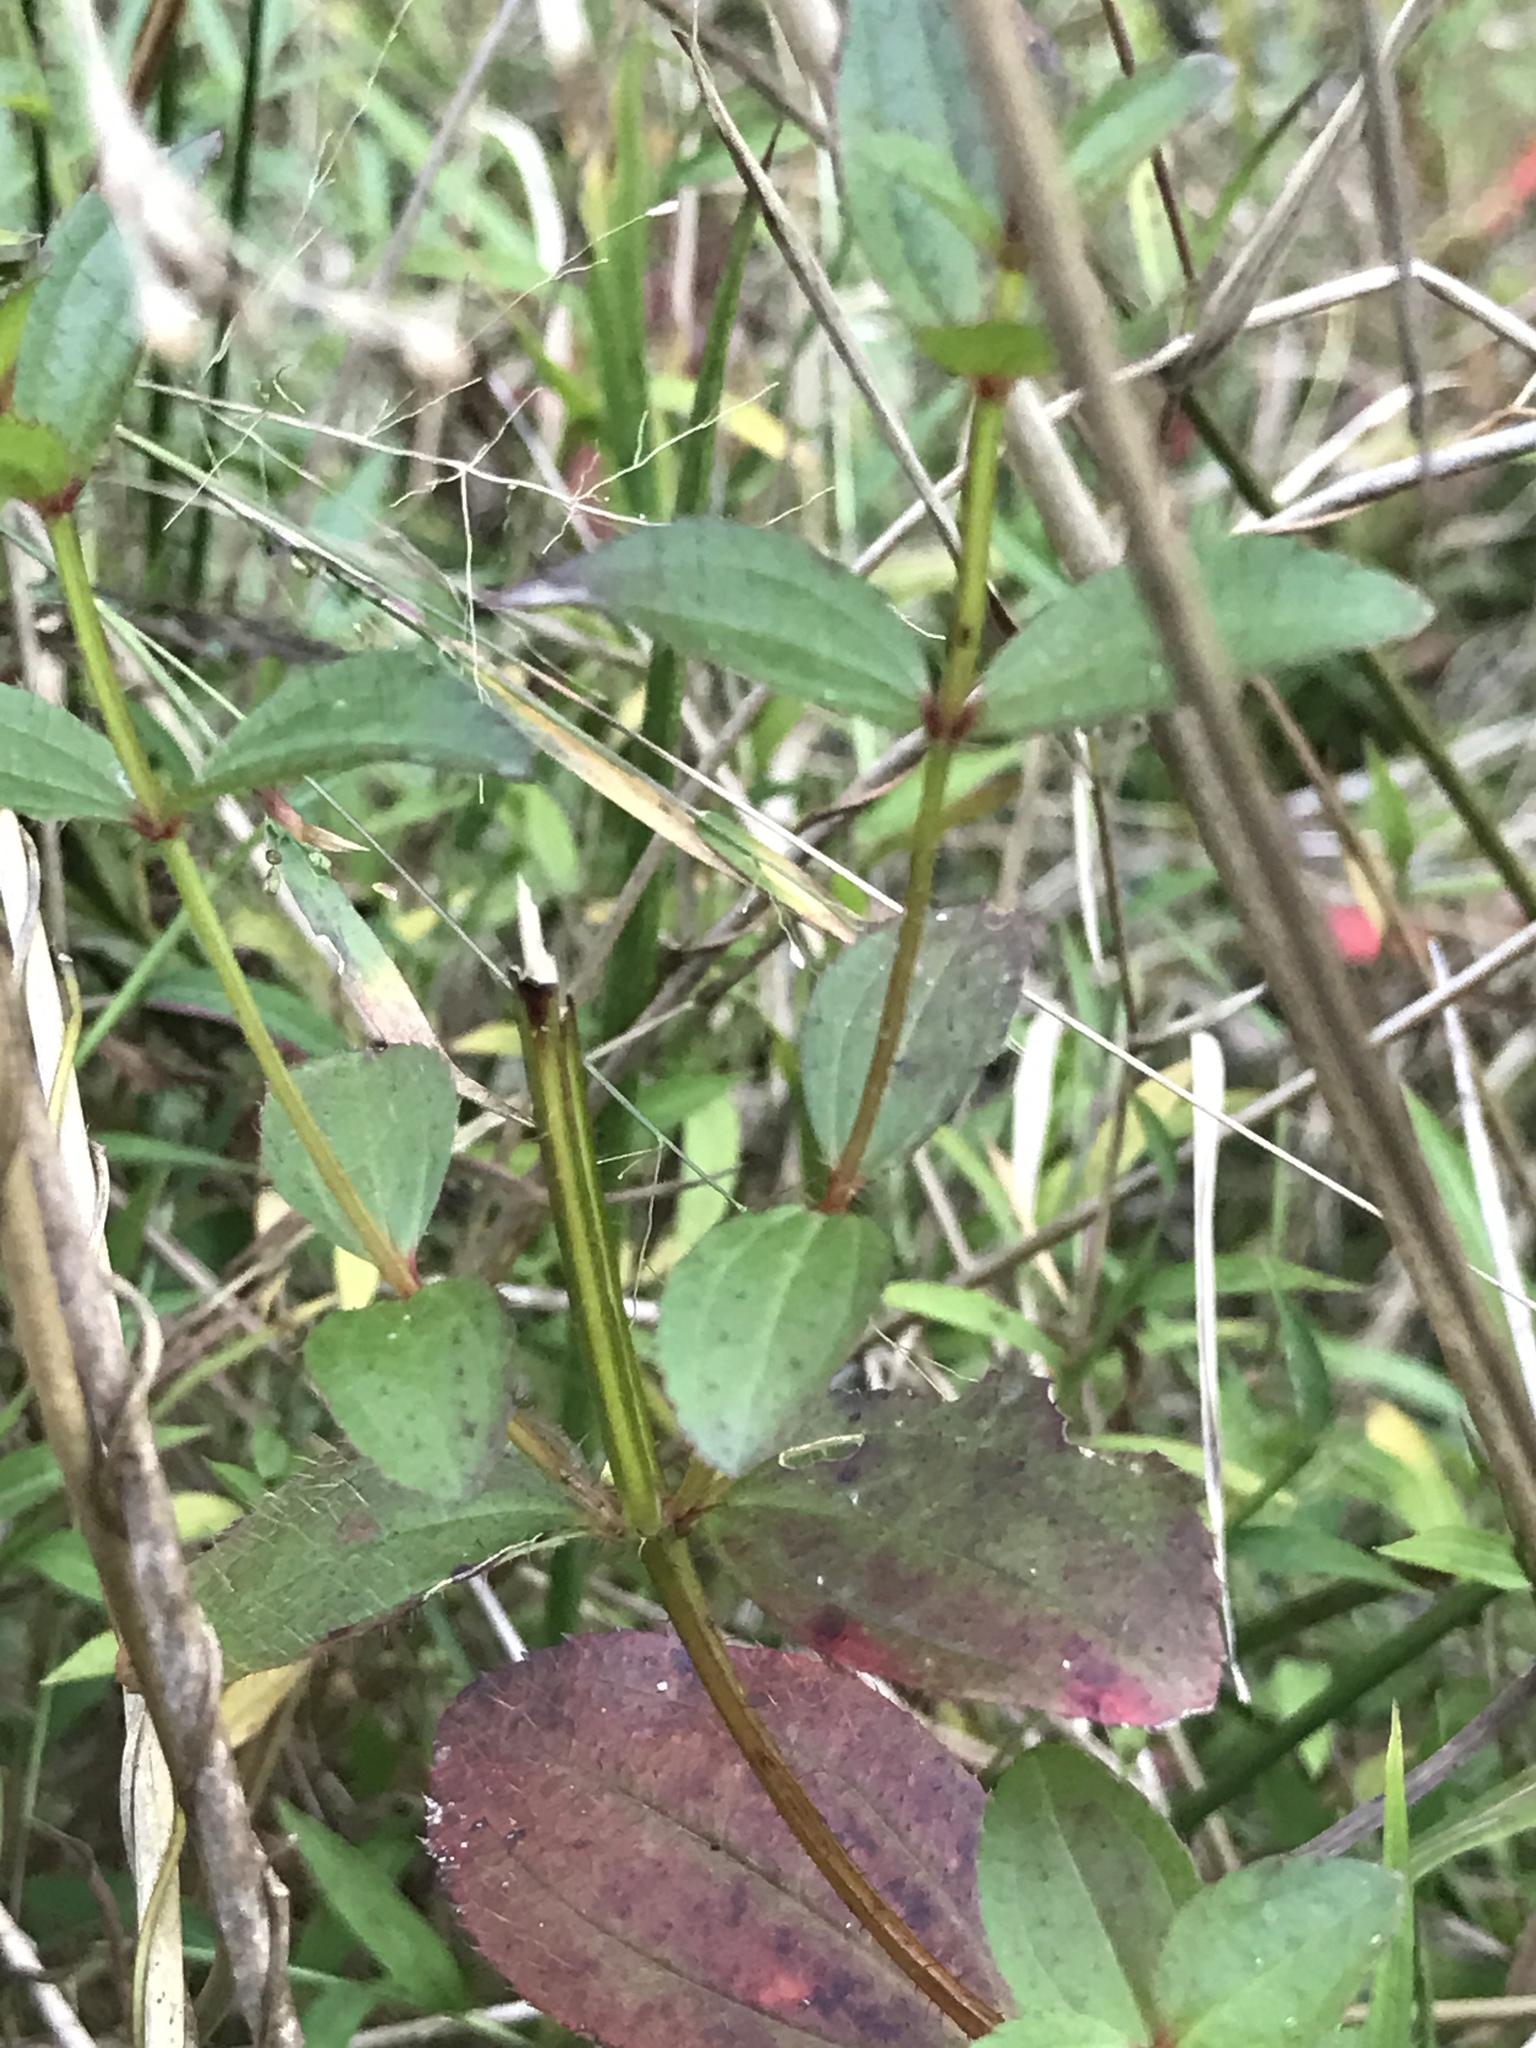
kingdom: Plantae
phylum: Tracheophyta
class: Magnoliopsida
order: Myrtales
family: Melastomataceae
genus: Rhexia
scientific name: Rhexia virginica
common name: Common meadow beauty
